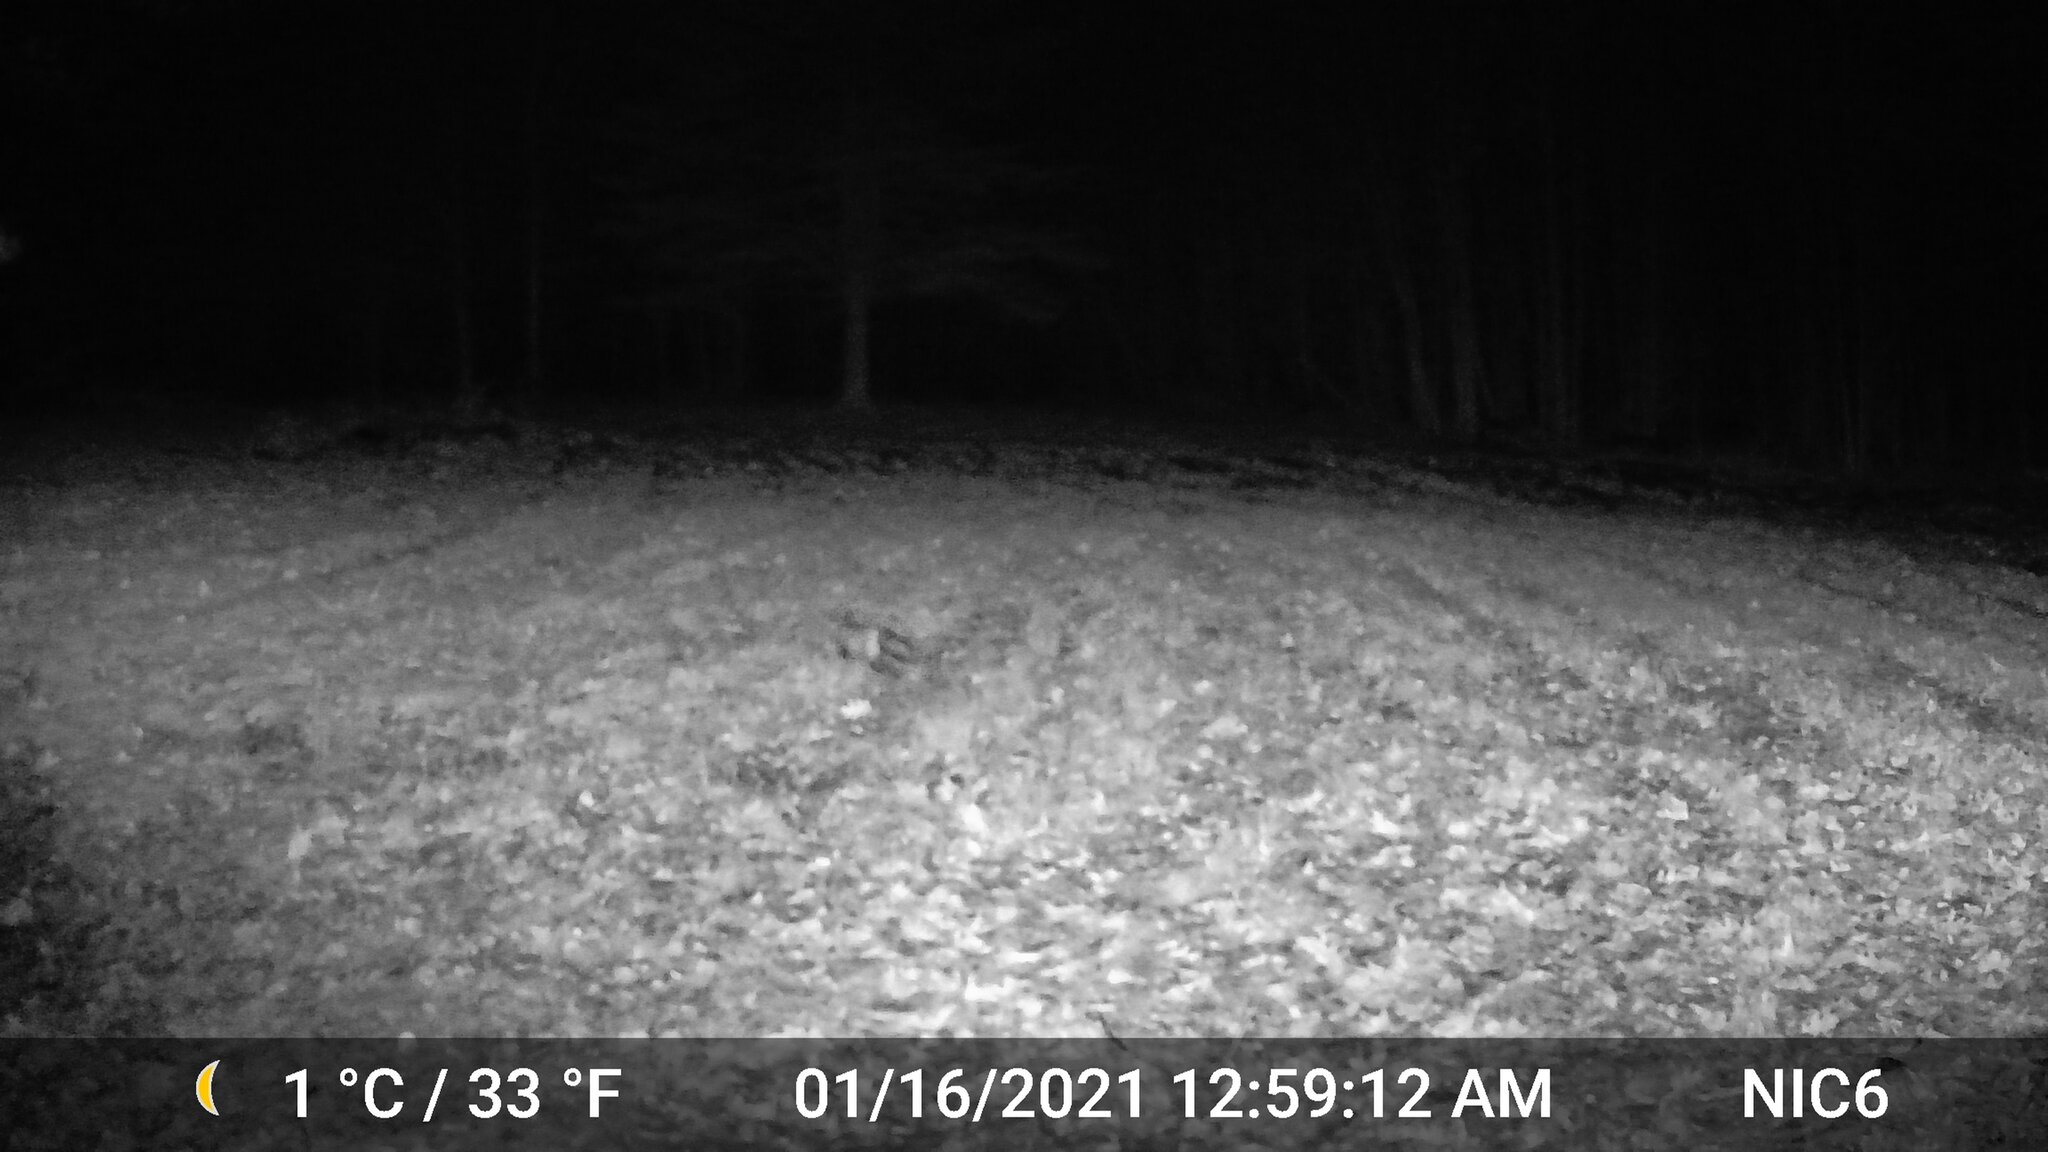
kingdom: Animalia
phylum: Chordata
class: Mammalia
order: Carnivora
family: Canidae
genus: Vulpes
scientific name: Vulpes vulpes
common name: Red fox
